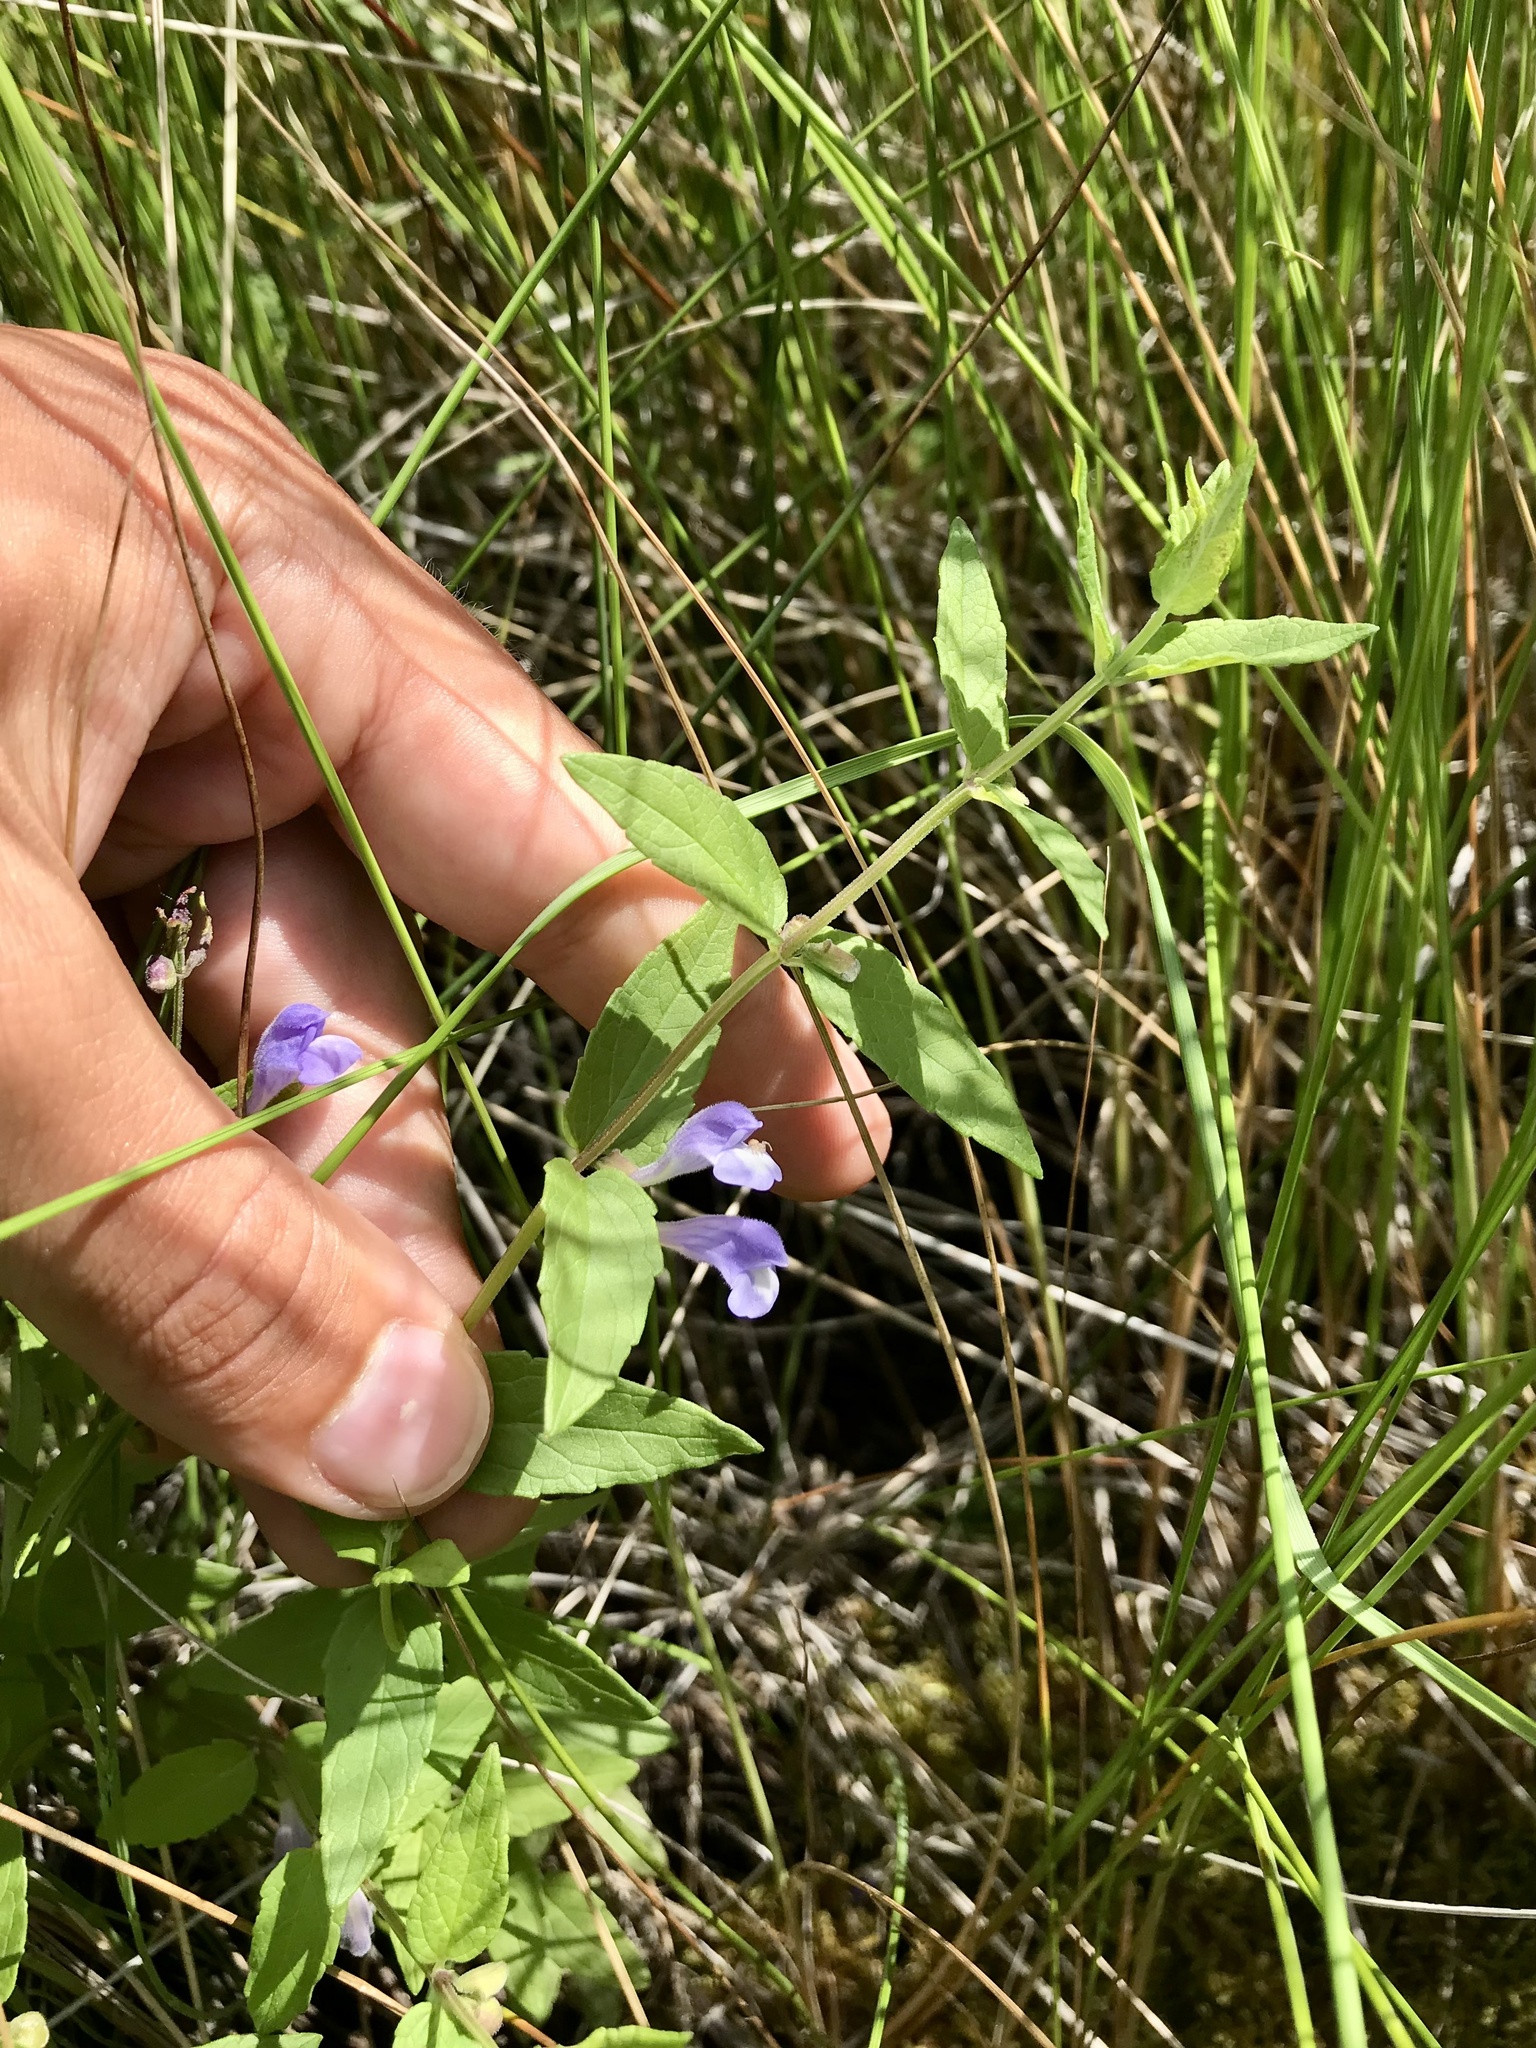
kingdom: Plantae
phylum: Tracheophyta
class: Magnoliopsida
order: Lamiales
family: Lamiaceae
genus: Scutellaria
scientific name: Scutellaria galericulata
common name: Skullcap
